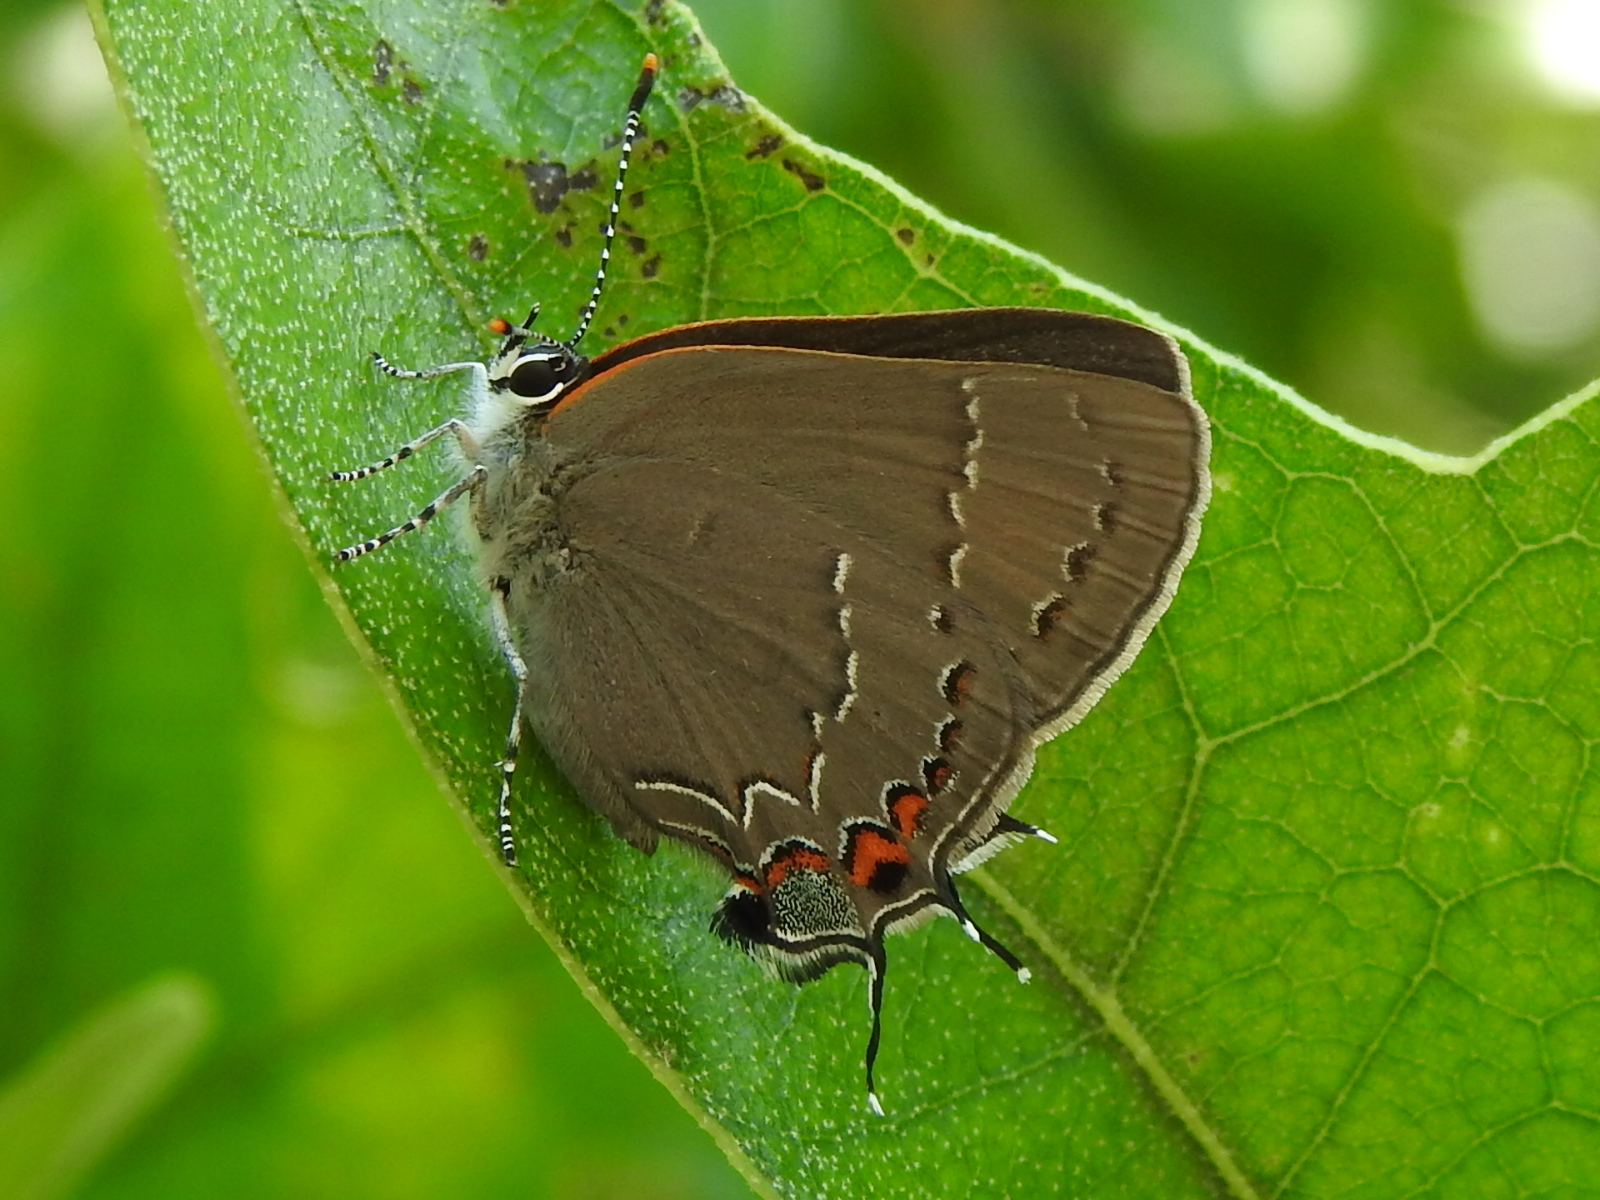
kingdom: Animalia
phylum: Arthropoda
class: Insecta
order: Lepidoptera
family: Lycaenidae
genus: Fixsenia
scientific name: Fixsenia favonius
